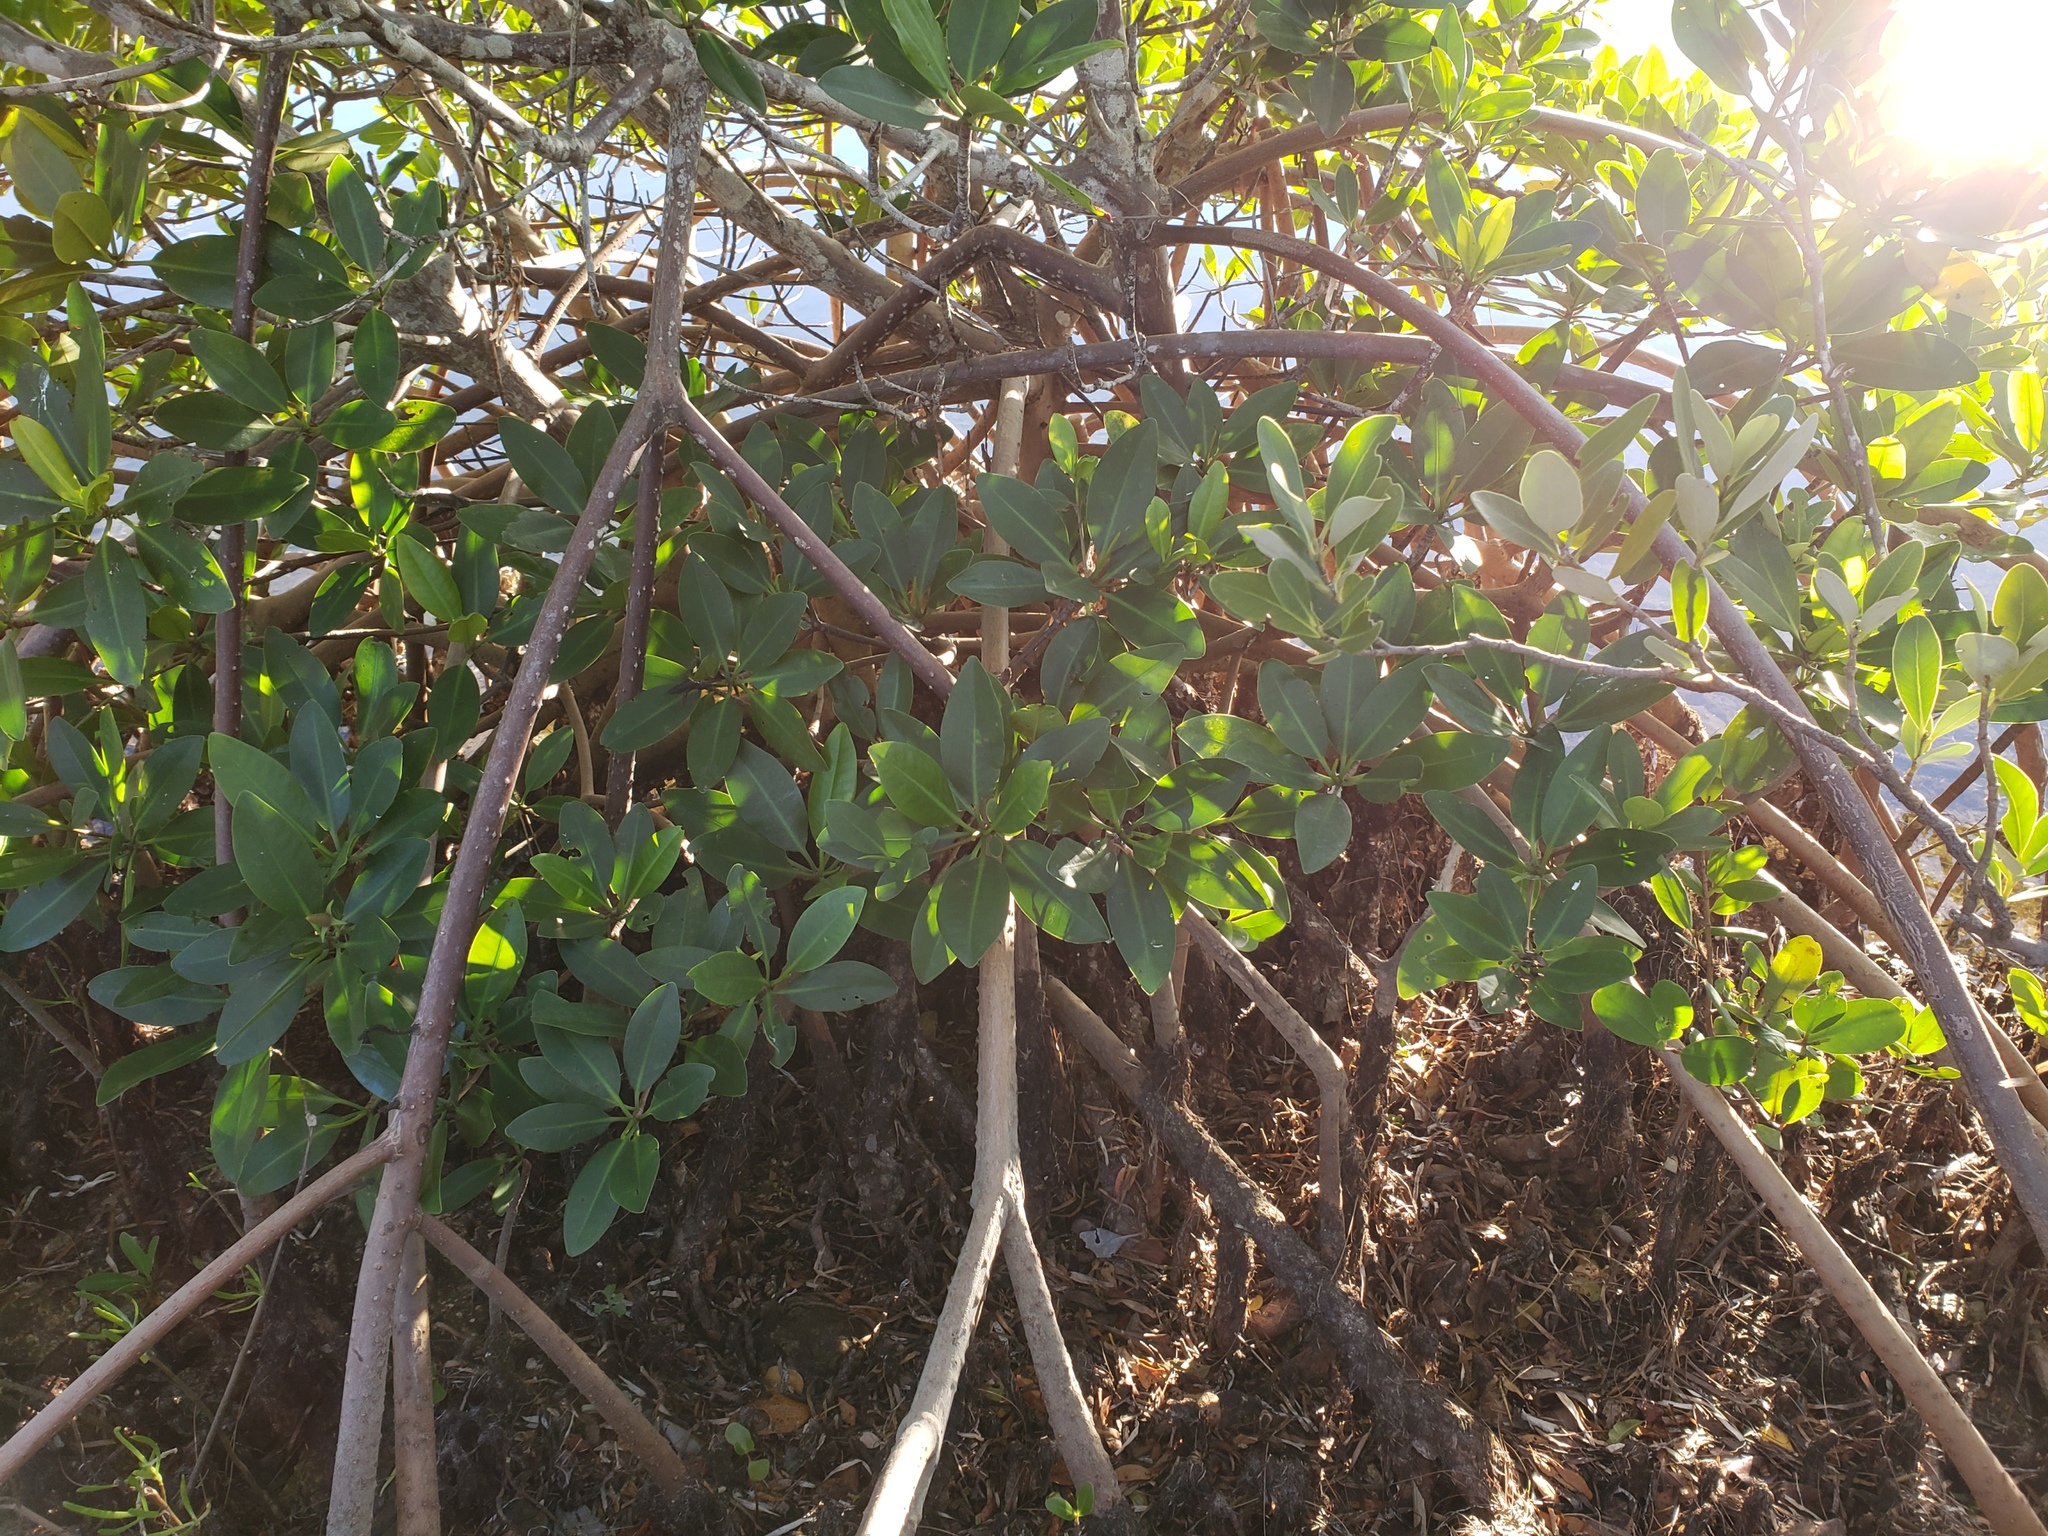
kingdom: Plantae
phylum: Tracheophyta
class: Magnoliopsida
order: Malpighiales
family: Rhizophoraceae
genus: Rhizophora
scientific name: Rhizophora mangle
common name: Red mangrove
